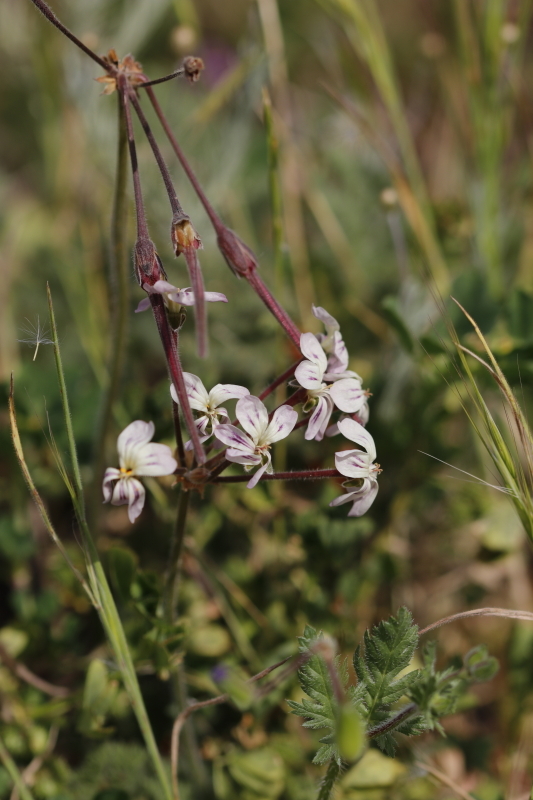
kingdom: Plantae
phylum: Tracheophyta
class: Magnoliopsida
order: Geraniales
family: Geraniaceae
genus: Pelargonium
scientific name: Pelargonium triste
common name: Night-scent pelargonium
